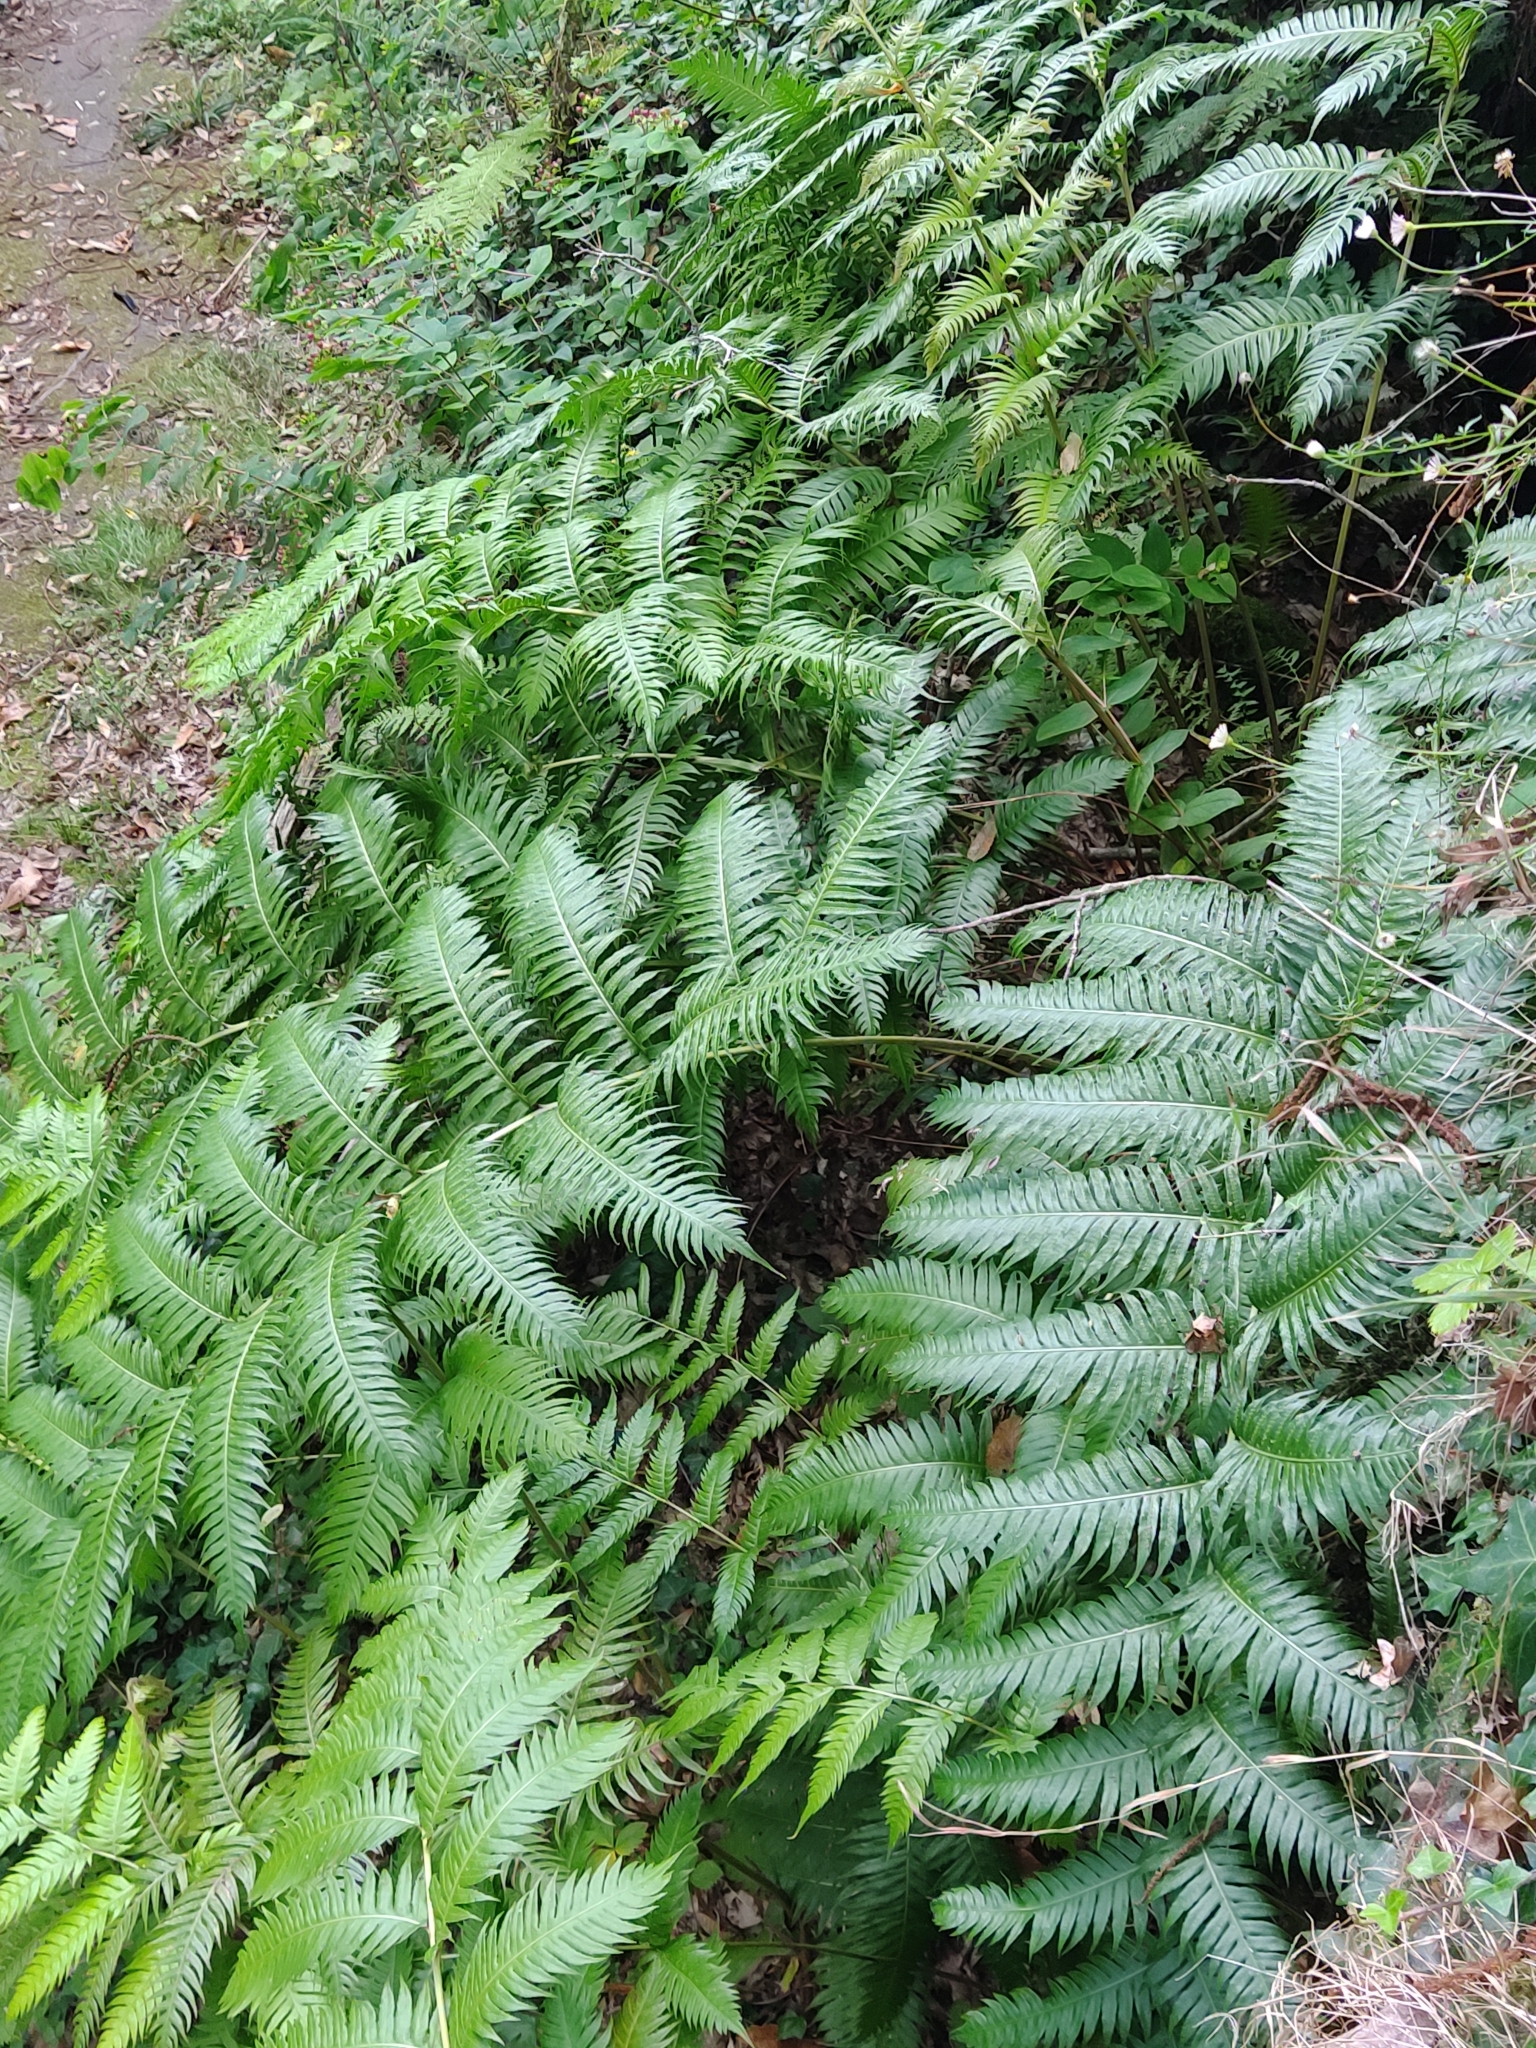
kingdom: Plantae
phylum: Tracheophyta
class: Polypodiopsida
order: Polypodiales
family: Blechnaceae
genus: Woodwardia
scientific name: Woodwardia radicans
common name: Rooting chainfern
